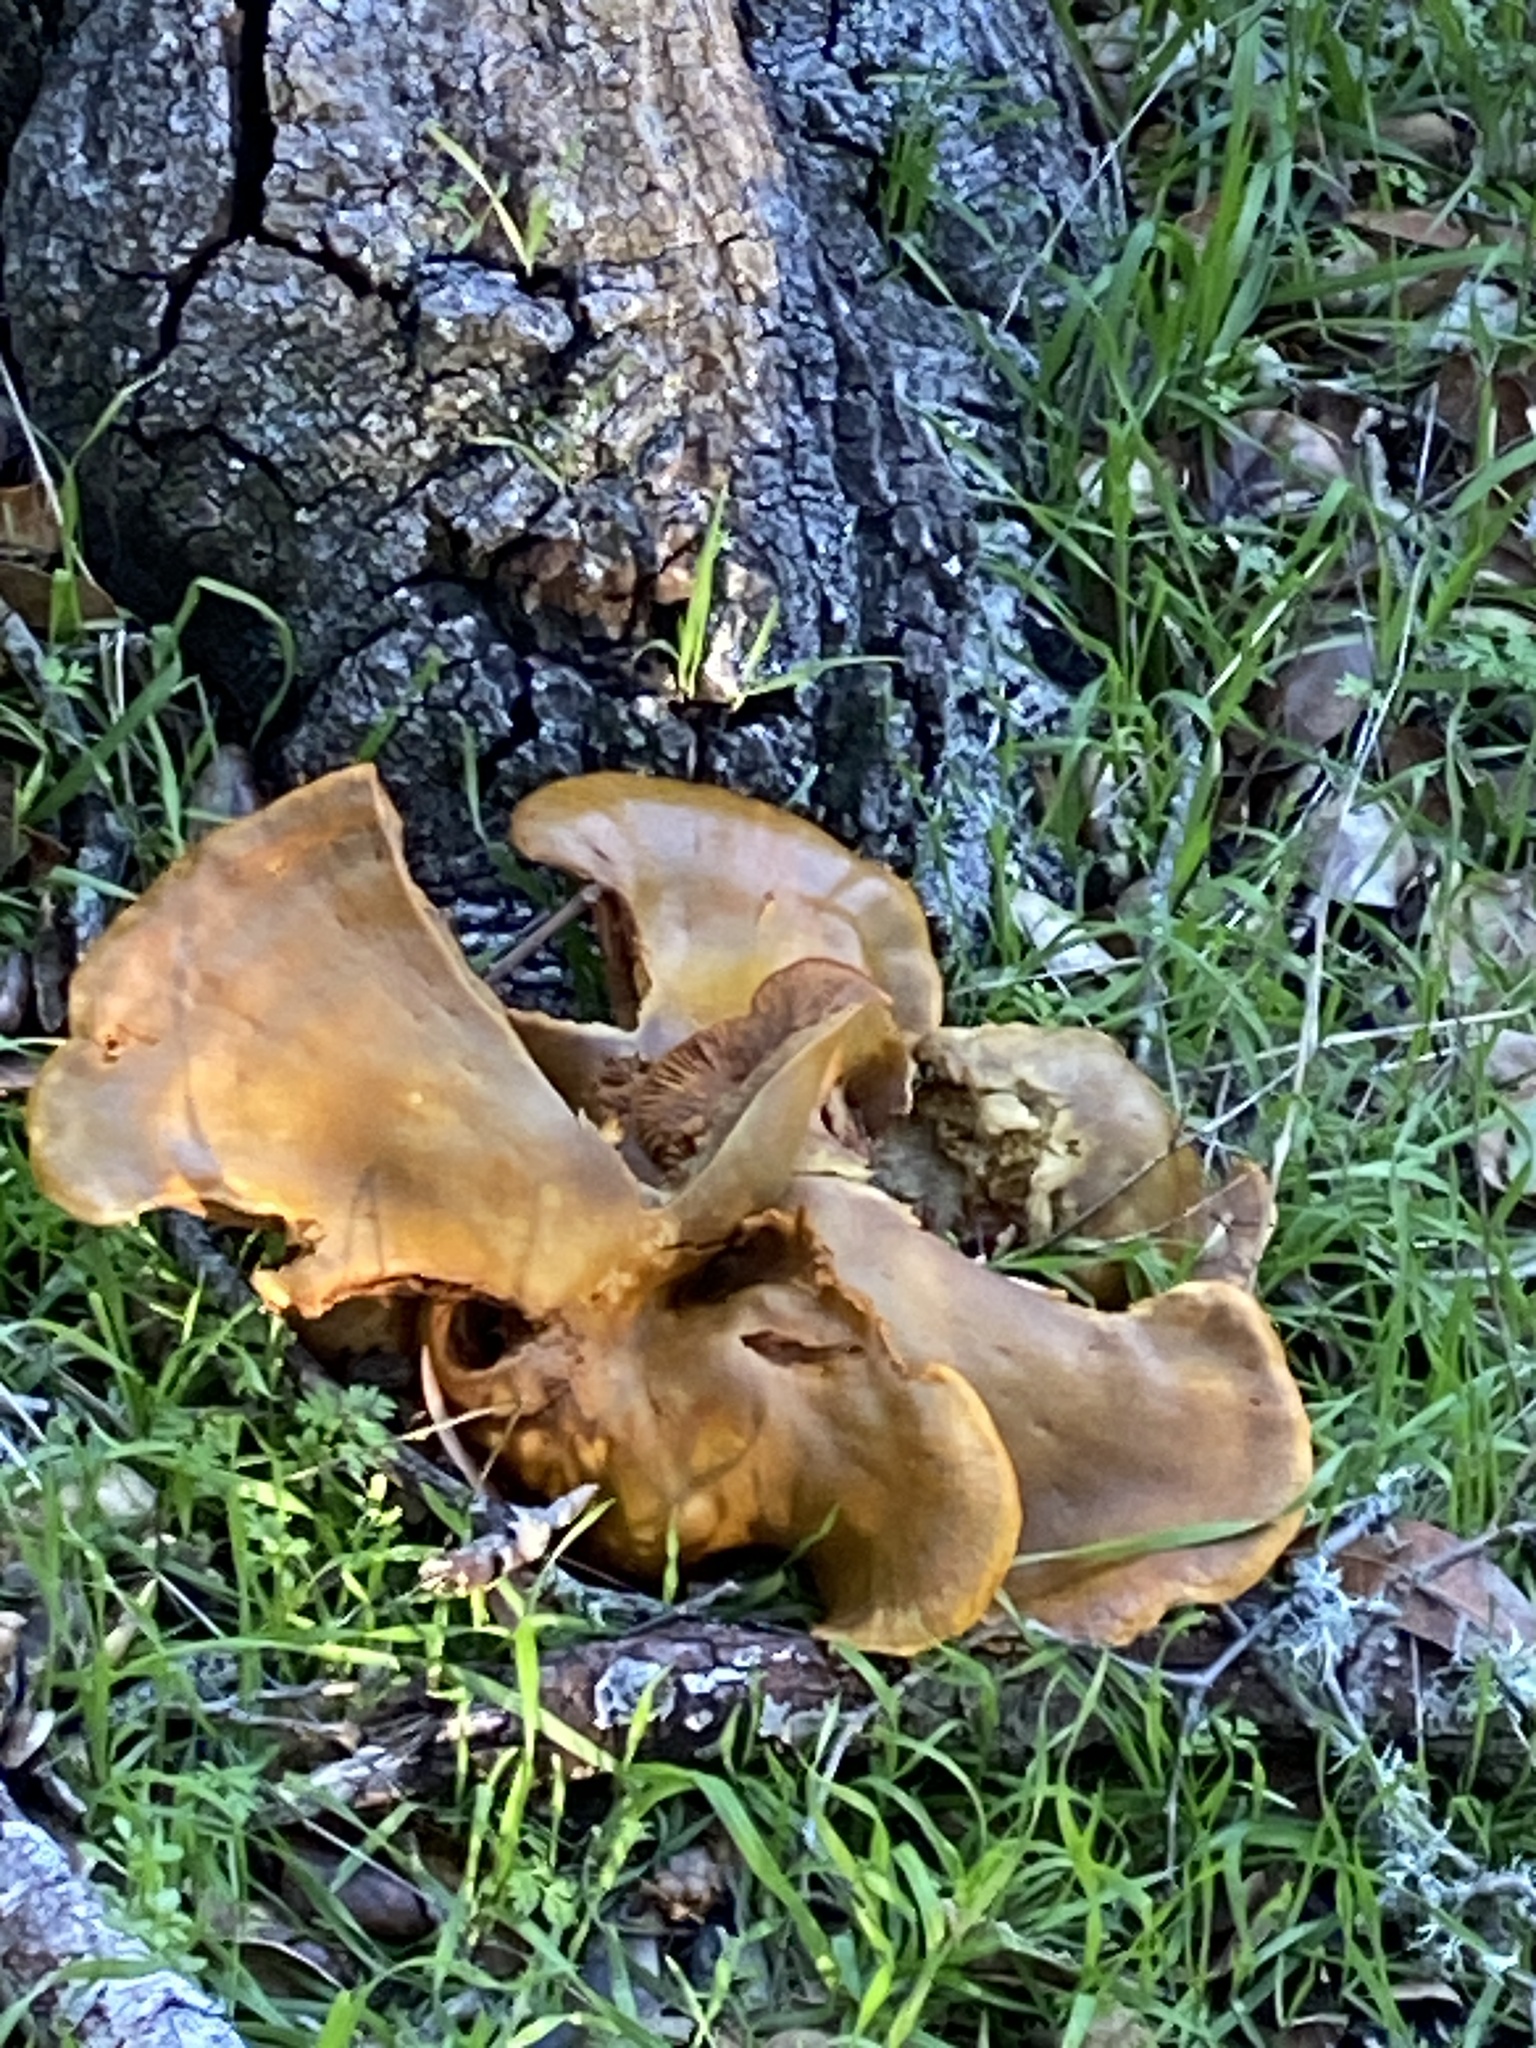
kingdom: Fungi
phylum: Basidiomycota
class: Agaricomycetes
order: Agaricales
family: Omphalotaceae
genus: Omphalotus
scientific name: Omphalotus olivascens
